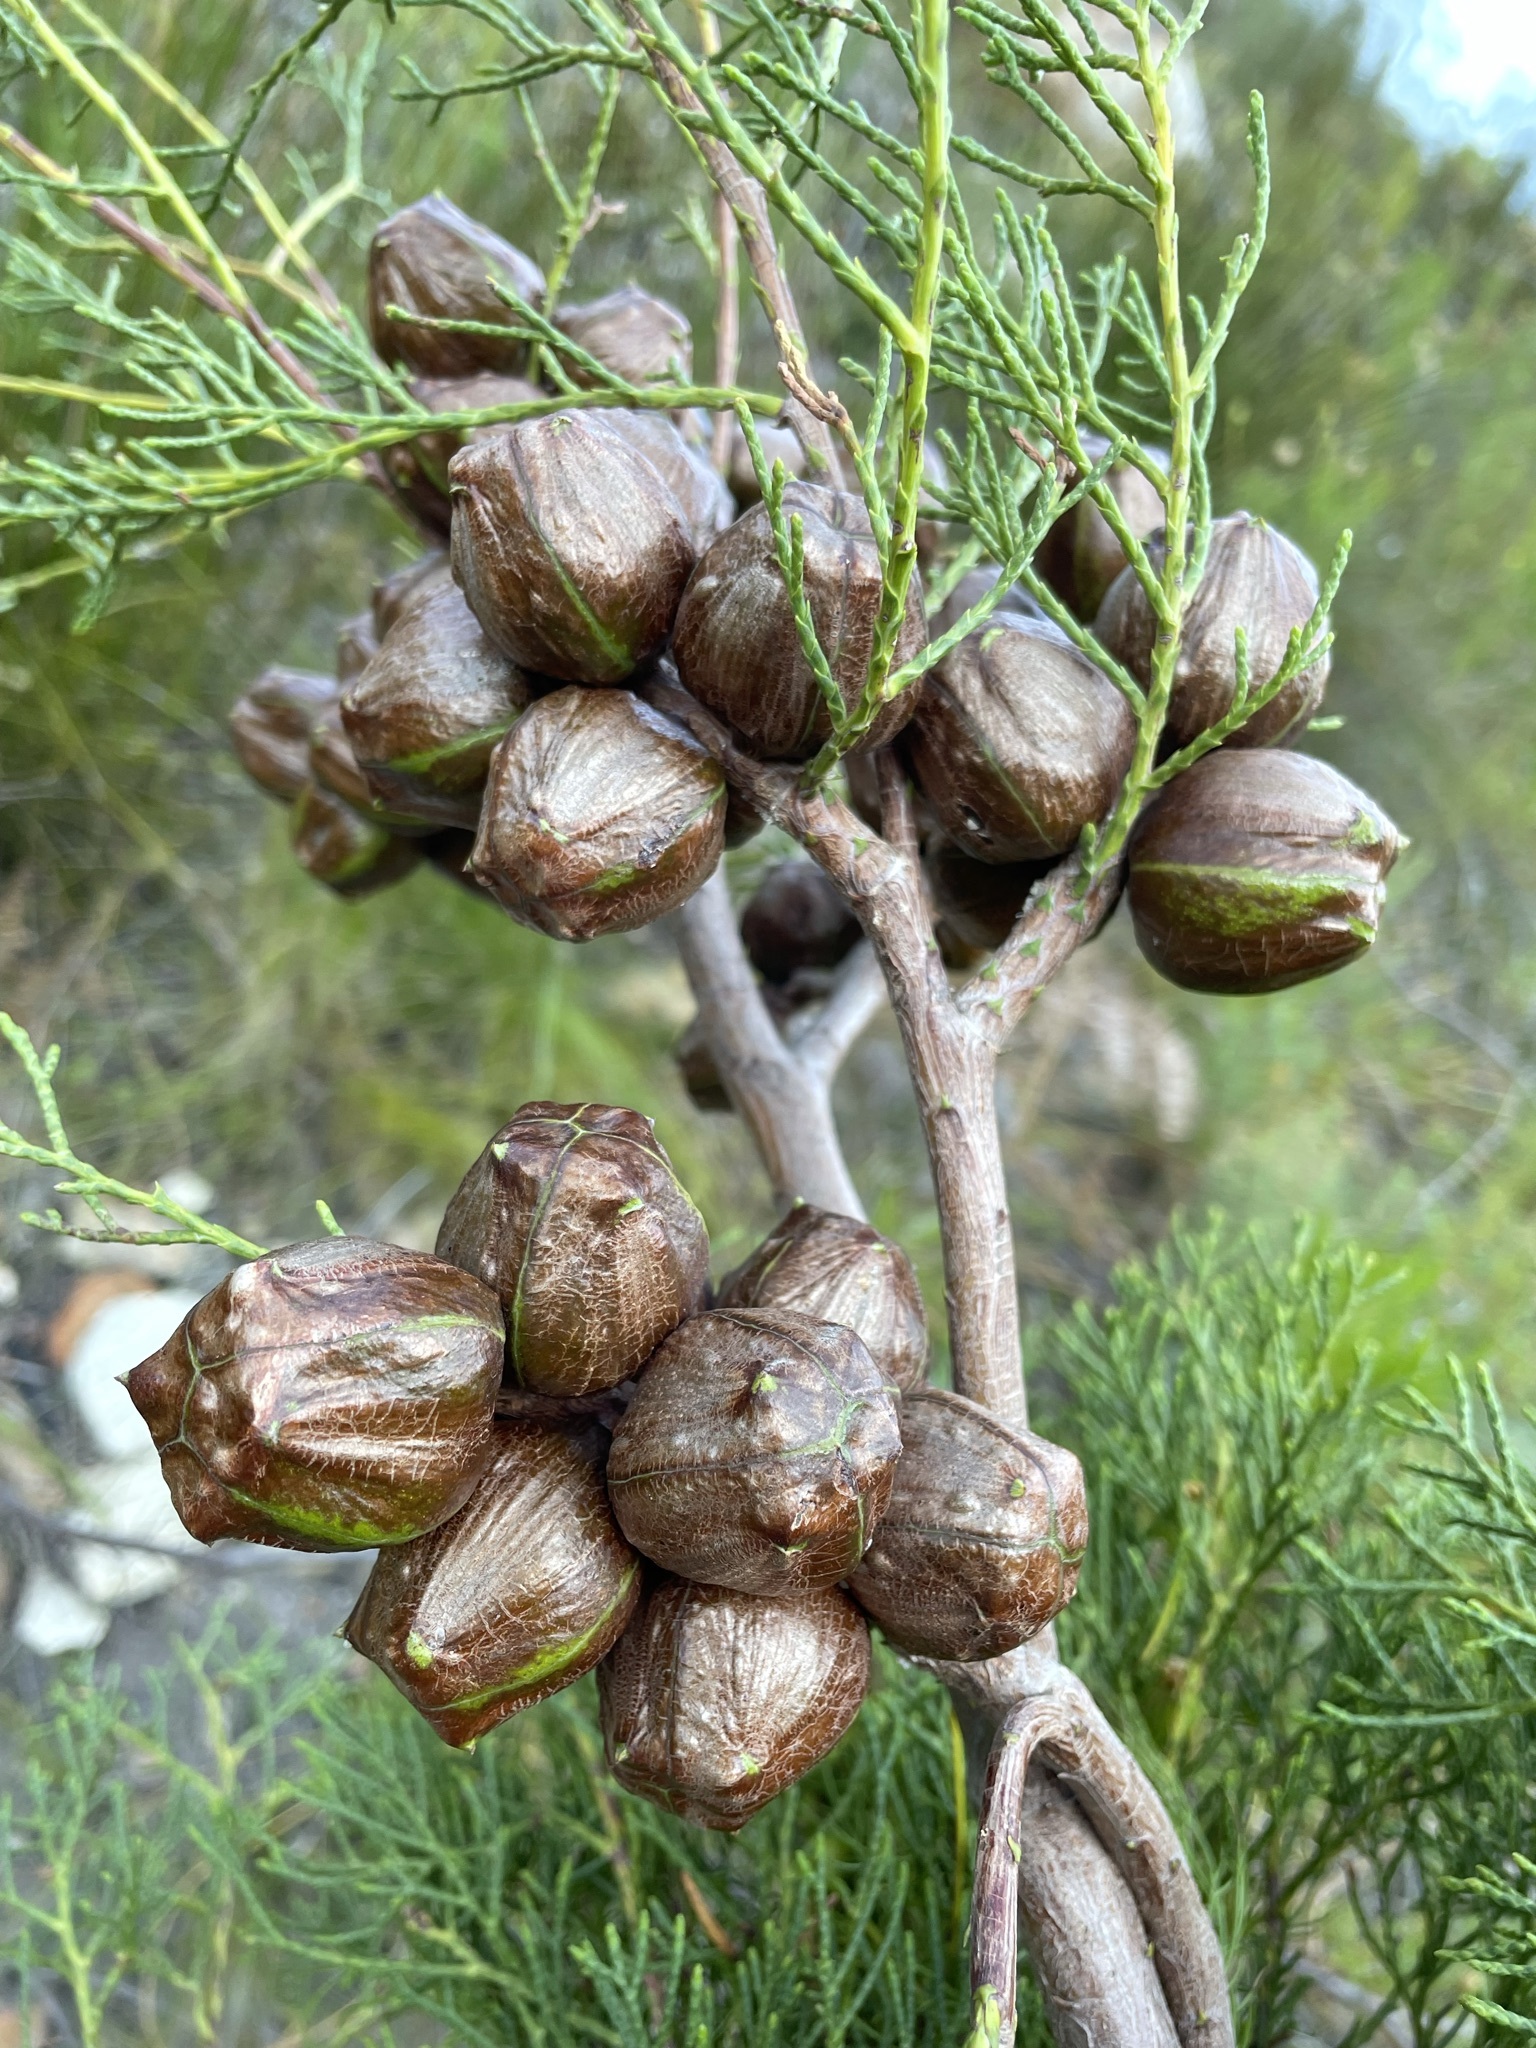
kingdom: Plantae
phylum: Tracheophyta
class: Pinopsida
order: Pinales
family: Cupressaceae
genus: Widdringtonia
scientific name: Widdringtonia nodiflora
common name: Cape cypress
